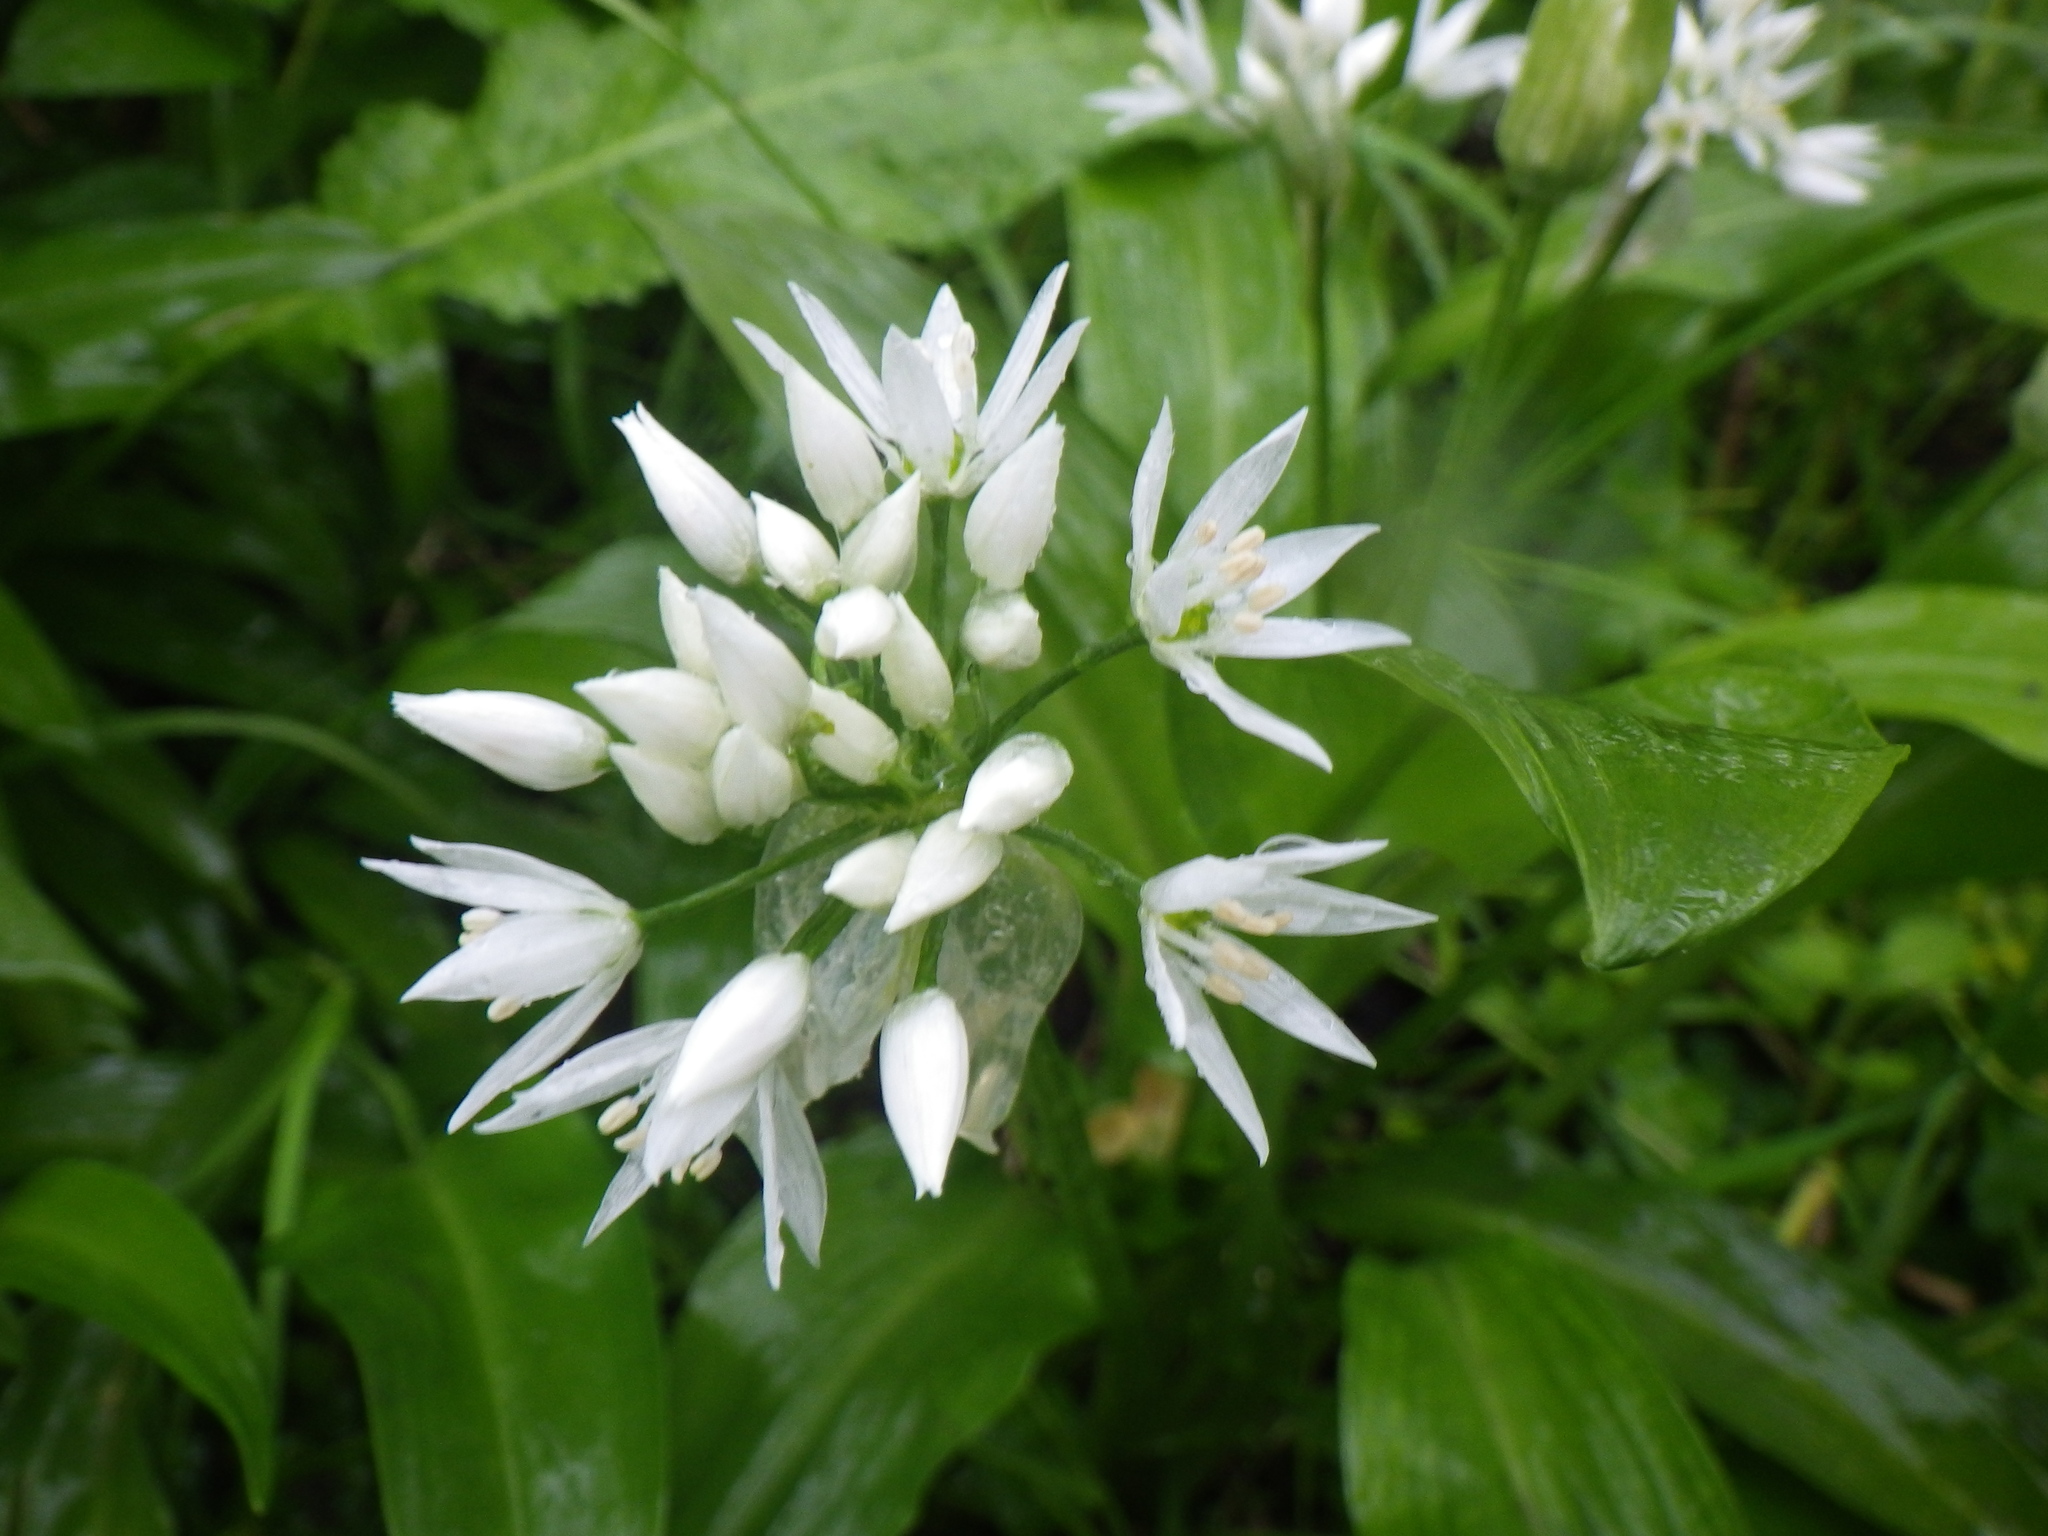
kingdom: Plantae
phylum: Tracheophyta
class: Liliopsida
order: Asparagales
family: Amaryllidaceae
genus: Allium
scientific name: Allium ursinum
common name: Ramsons
